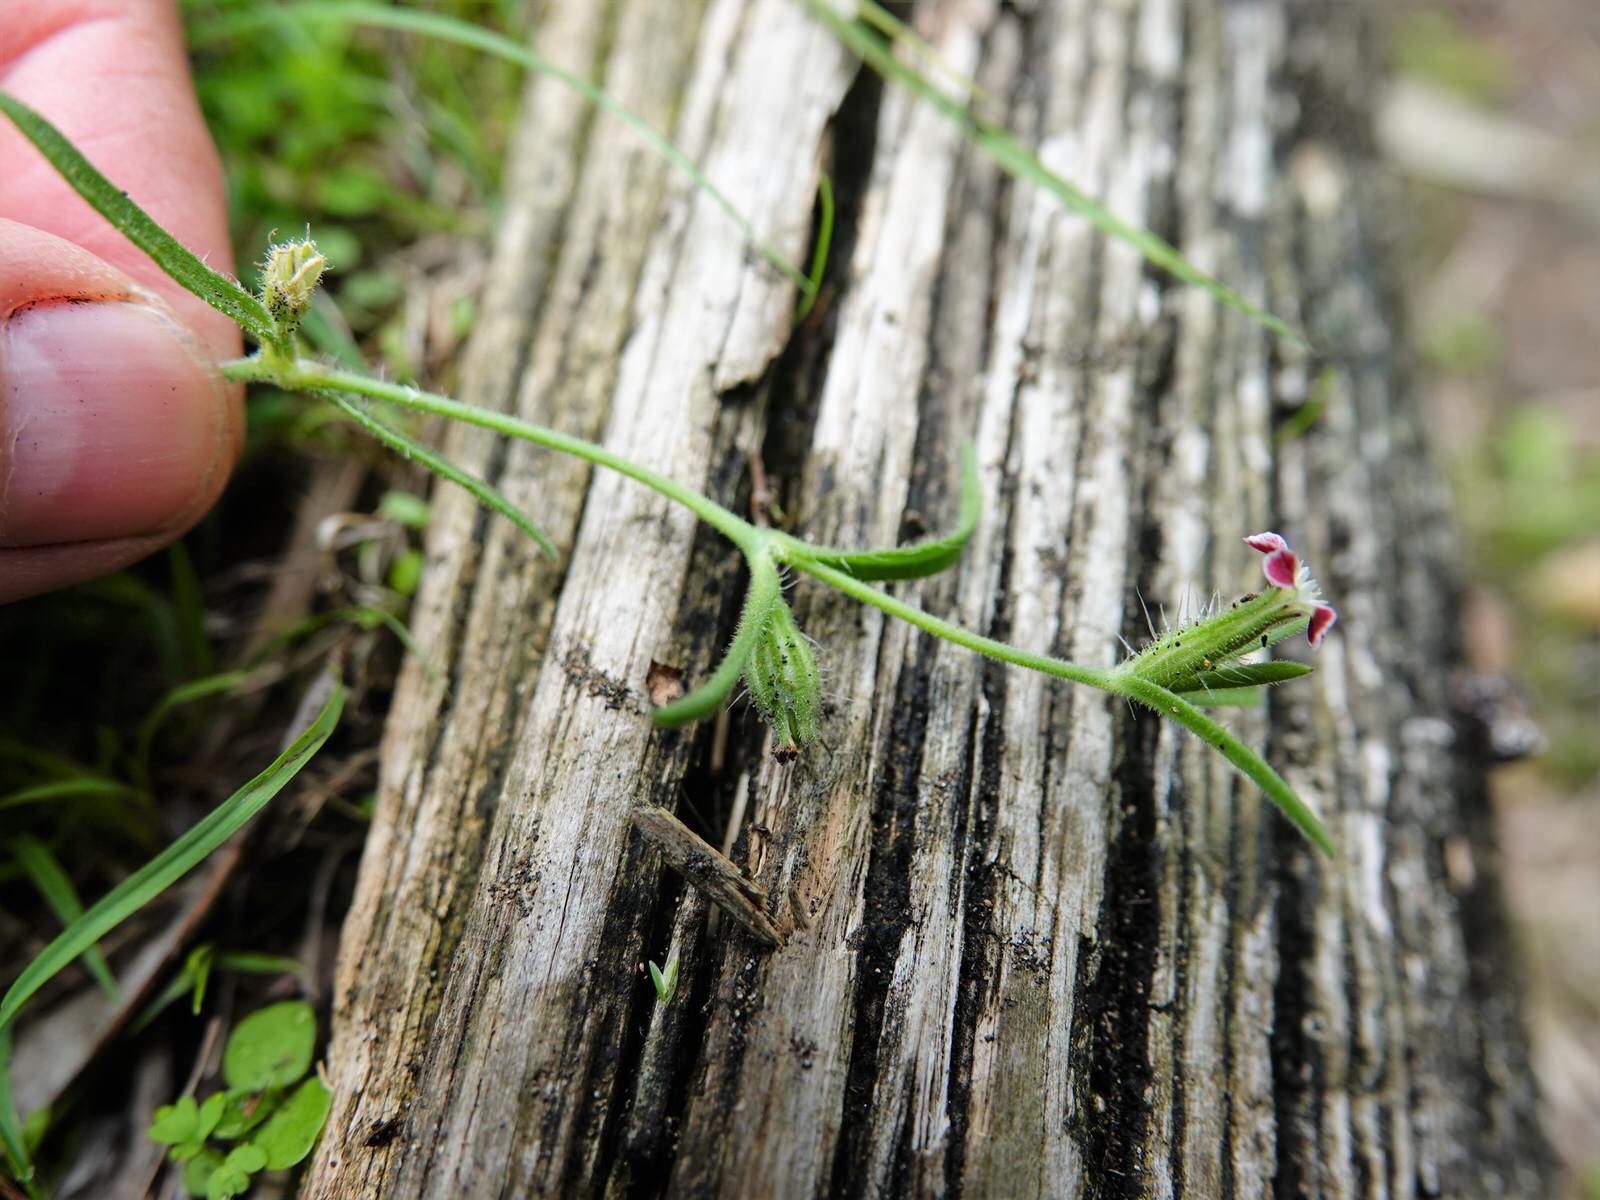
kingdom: Plantae
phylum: Tracheophyta
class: Magnoliopsida
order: Caryophyllales
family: Caryophyllaceae
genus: Silene
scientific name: Silene gallica
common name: Small-flowered catchfly
